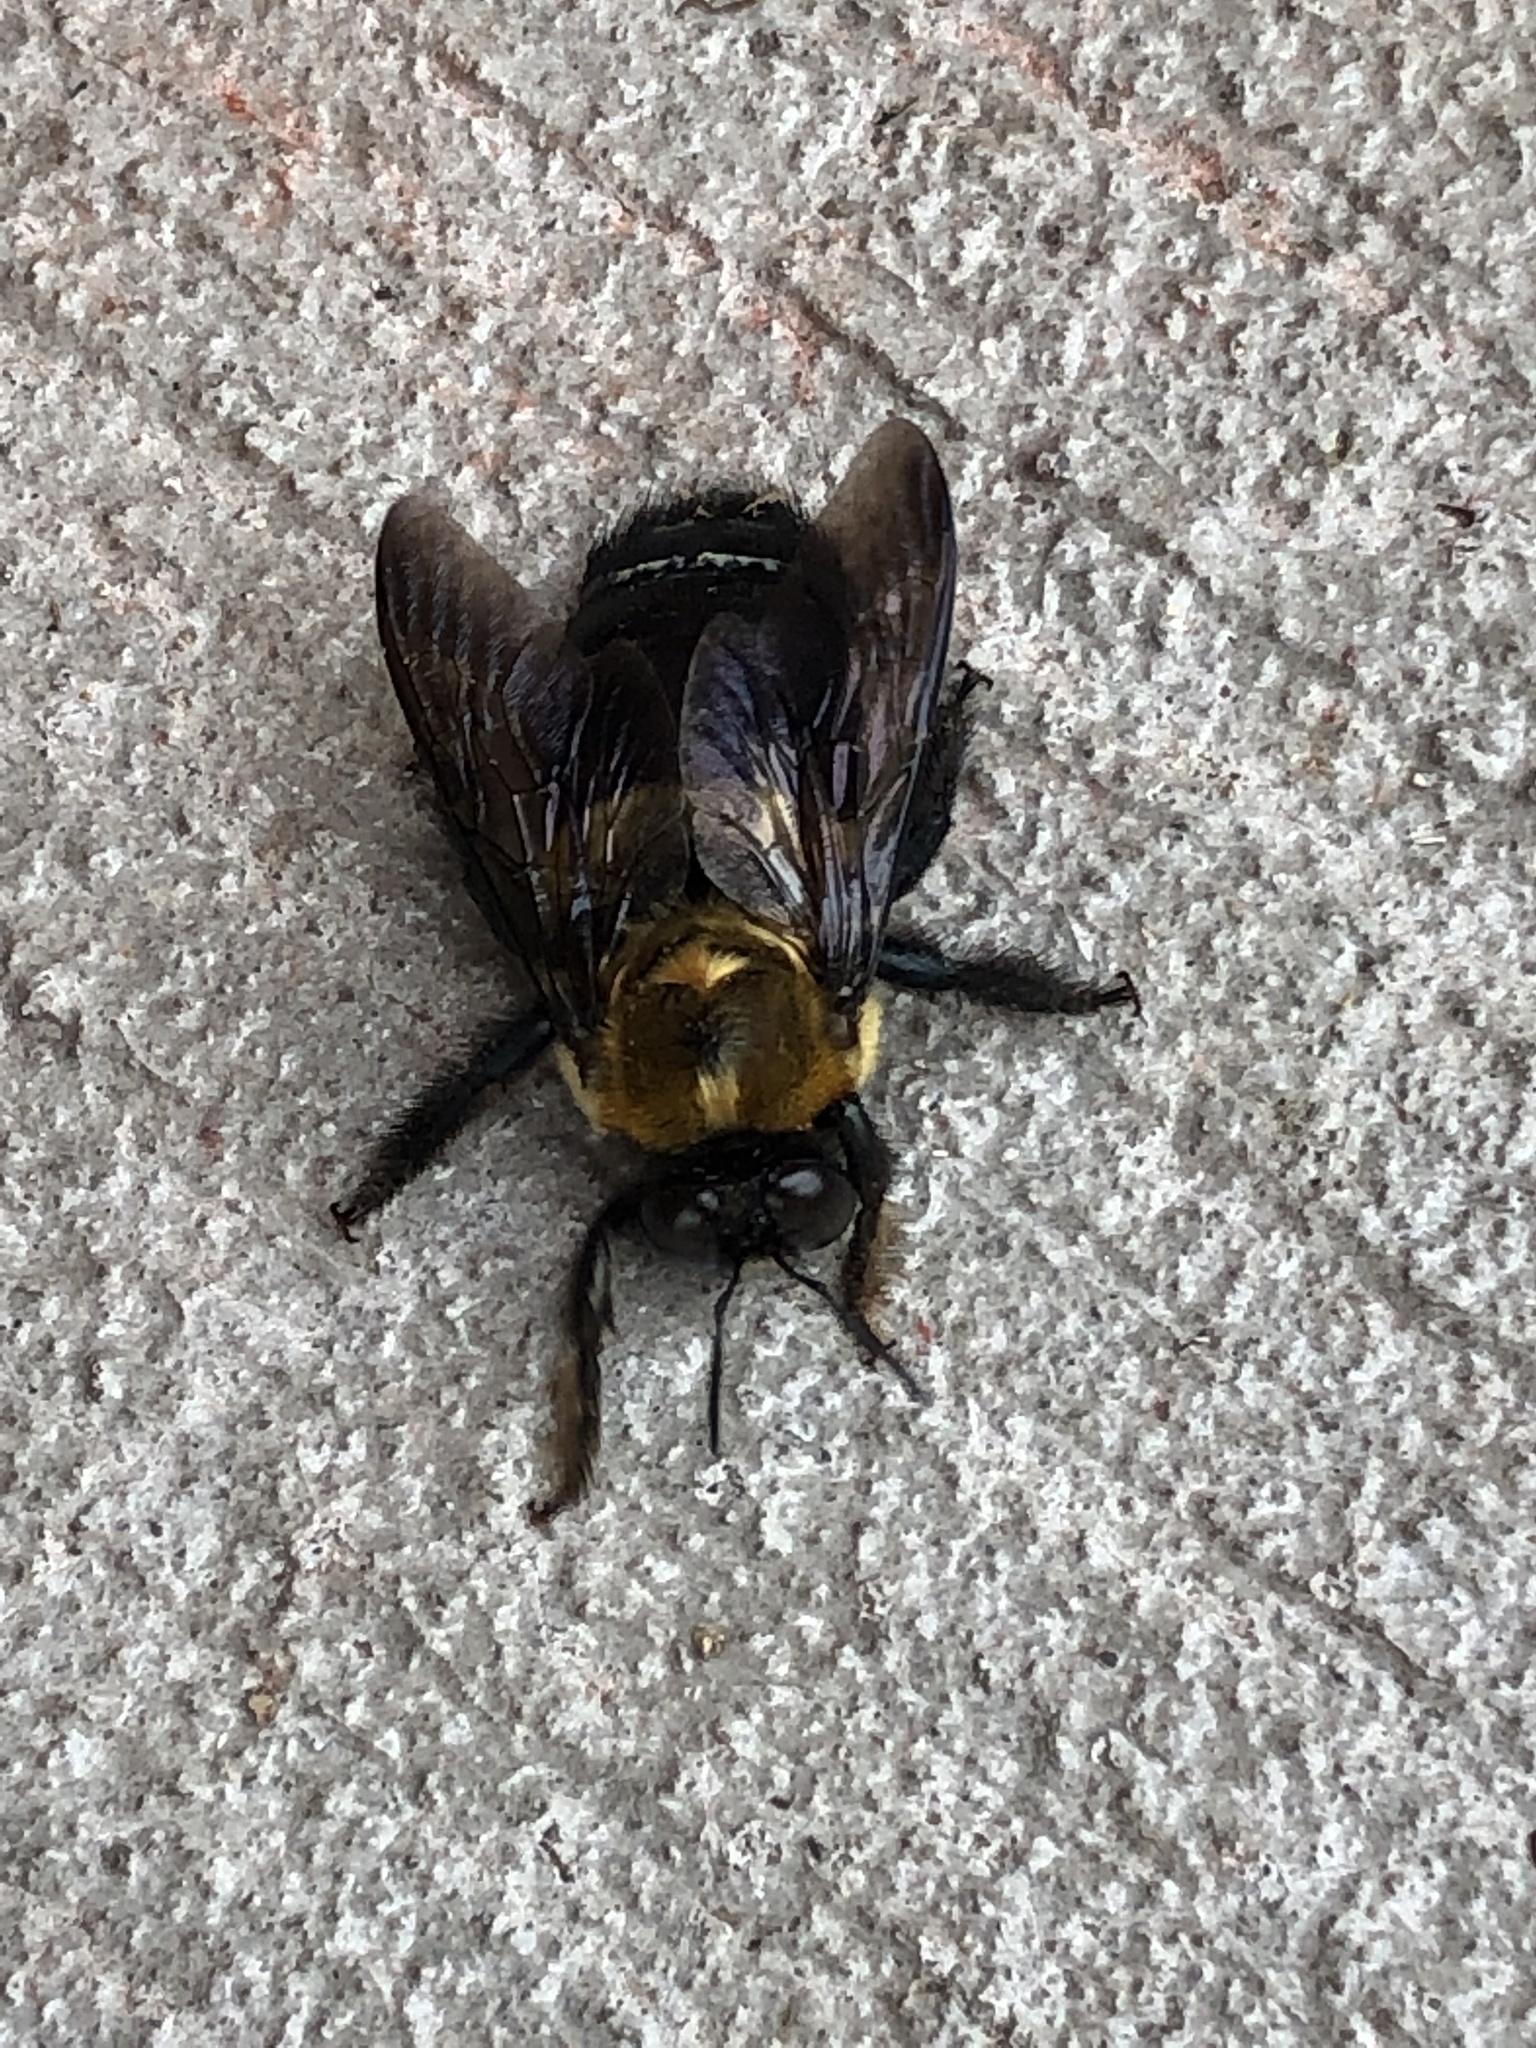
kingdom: Animalia
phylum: Arthropoda
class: Insecta
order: Hymenoptera
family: Apidae
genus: Xylocopa
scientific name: Xylocopa virginica
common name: Carpenter bee
